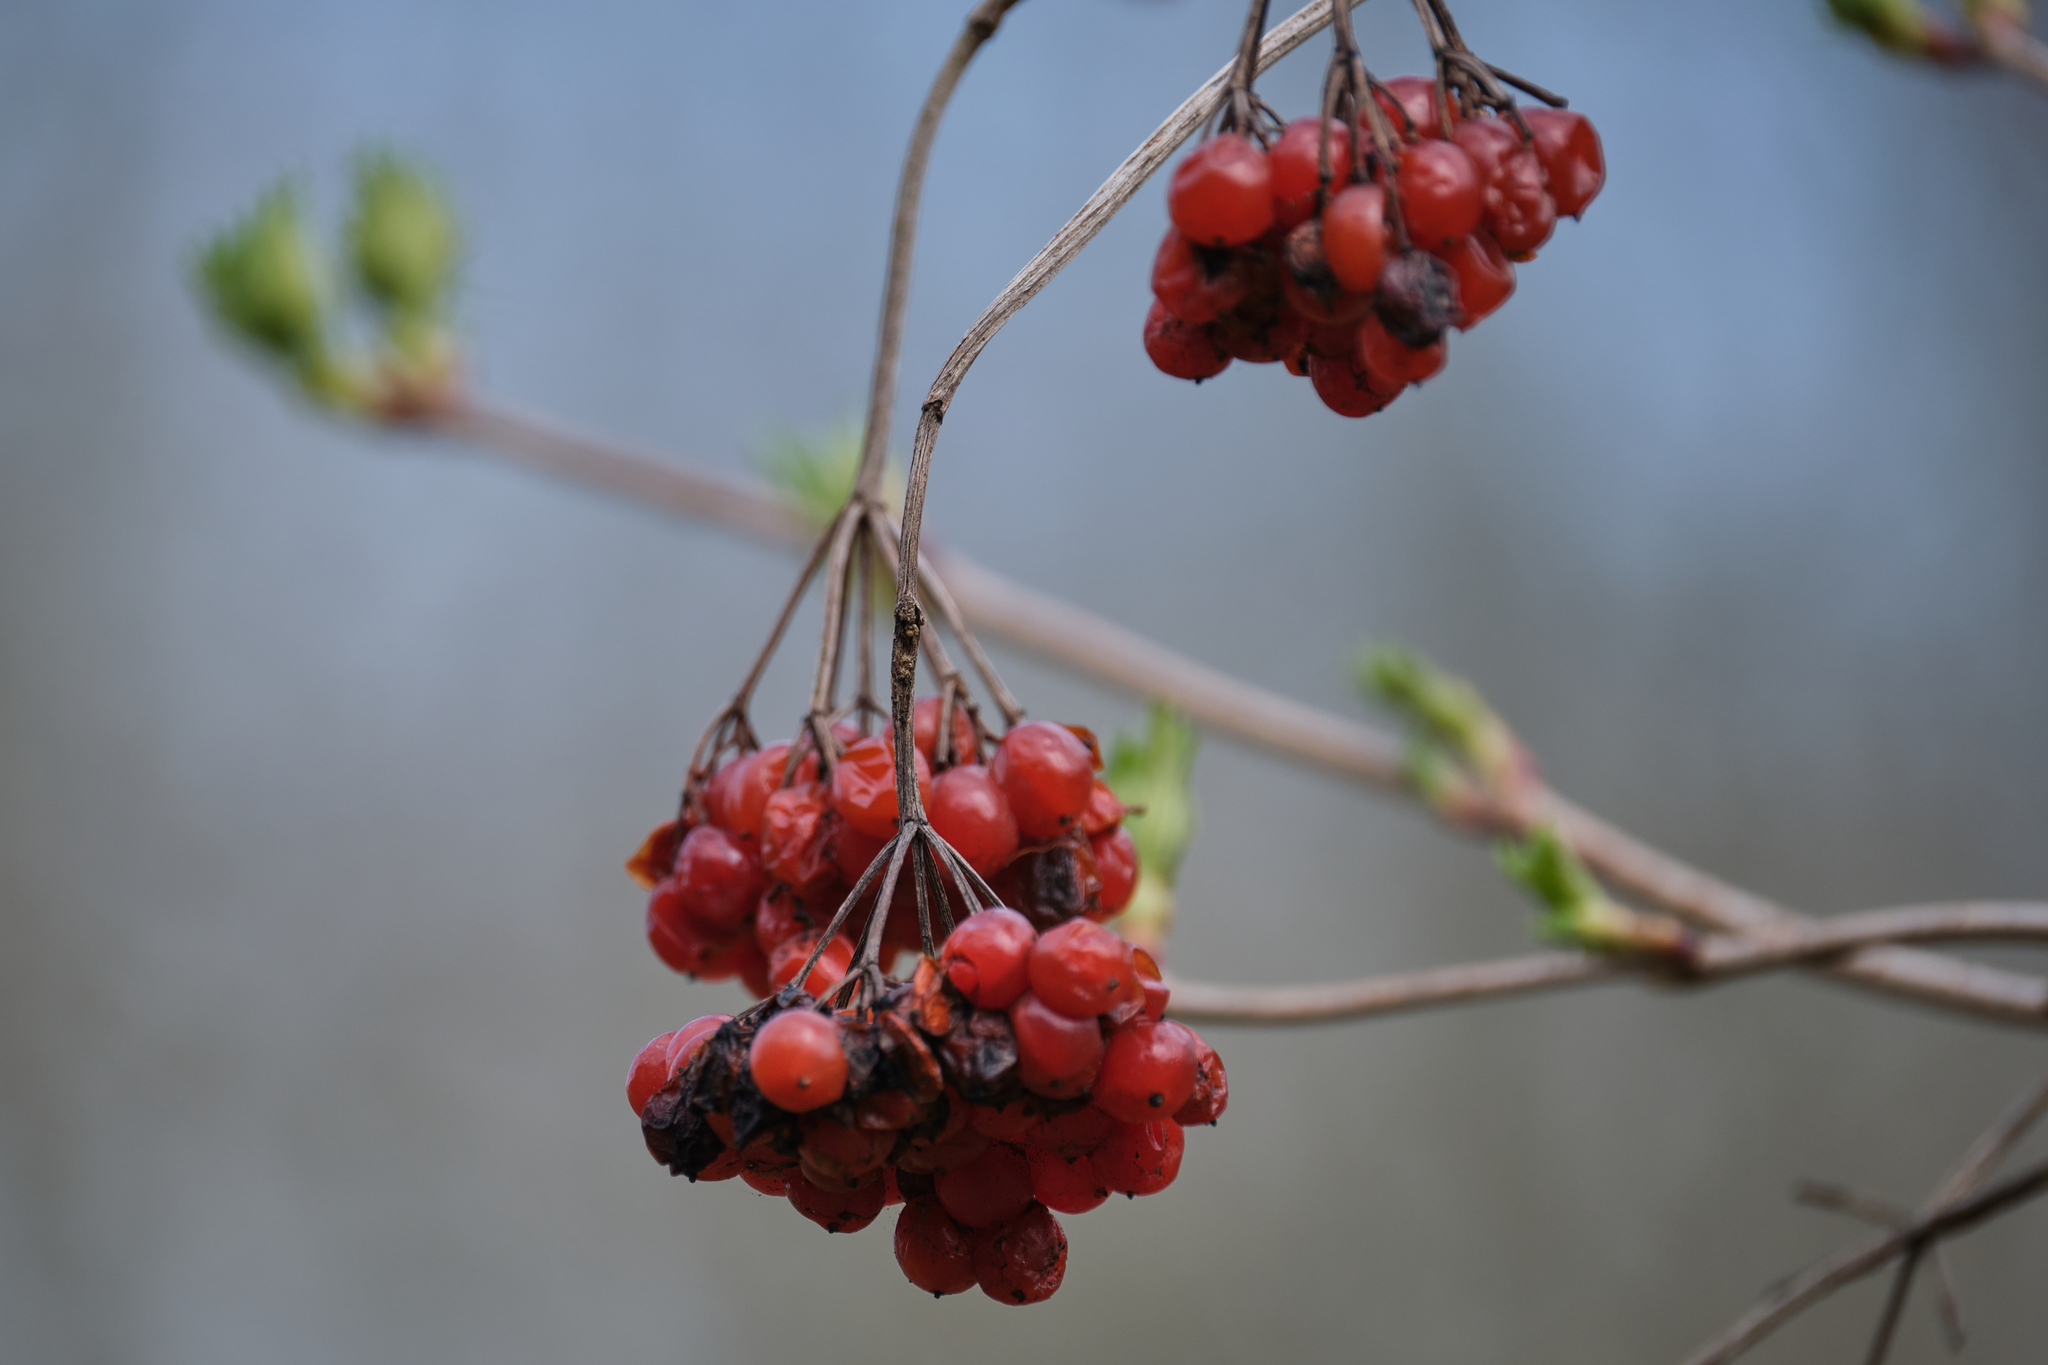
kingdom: Plantae
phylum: Tracheophyta
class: Magnoliopsida
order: Dipsacales
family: Viburnaceae
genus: Viburnum
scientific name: Viburnum opulus
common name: Guelder-rose
